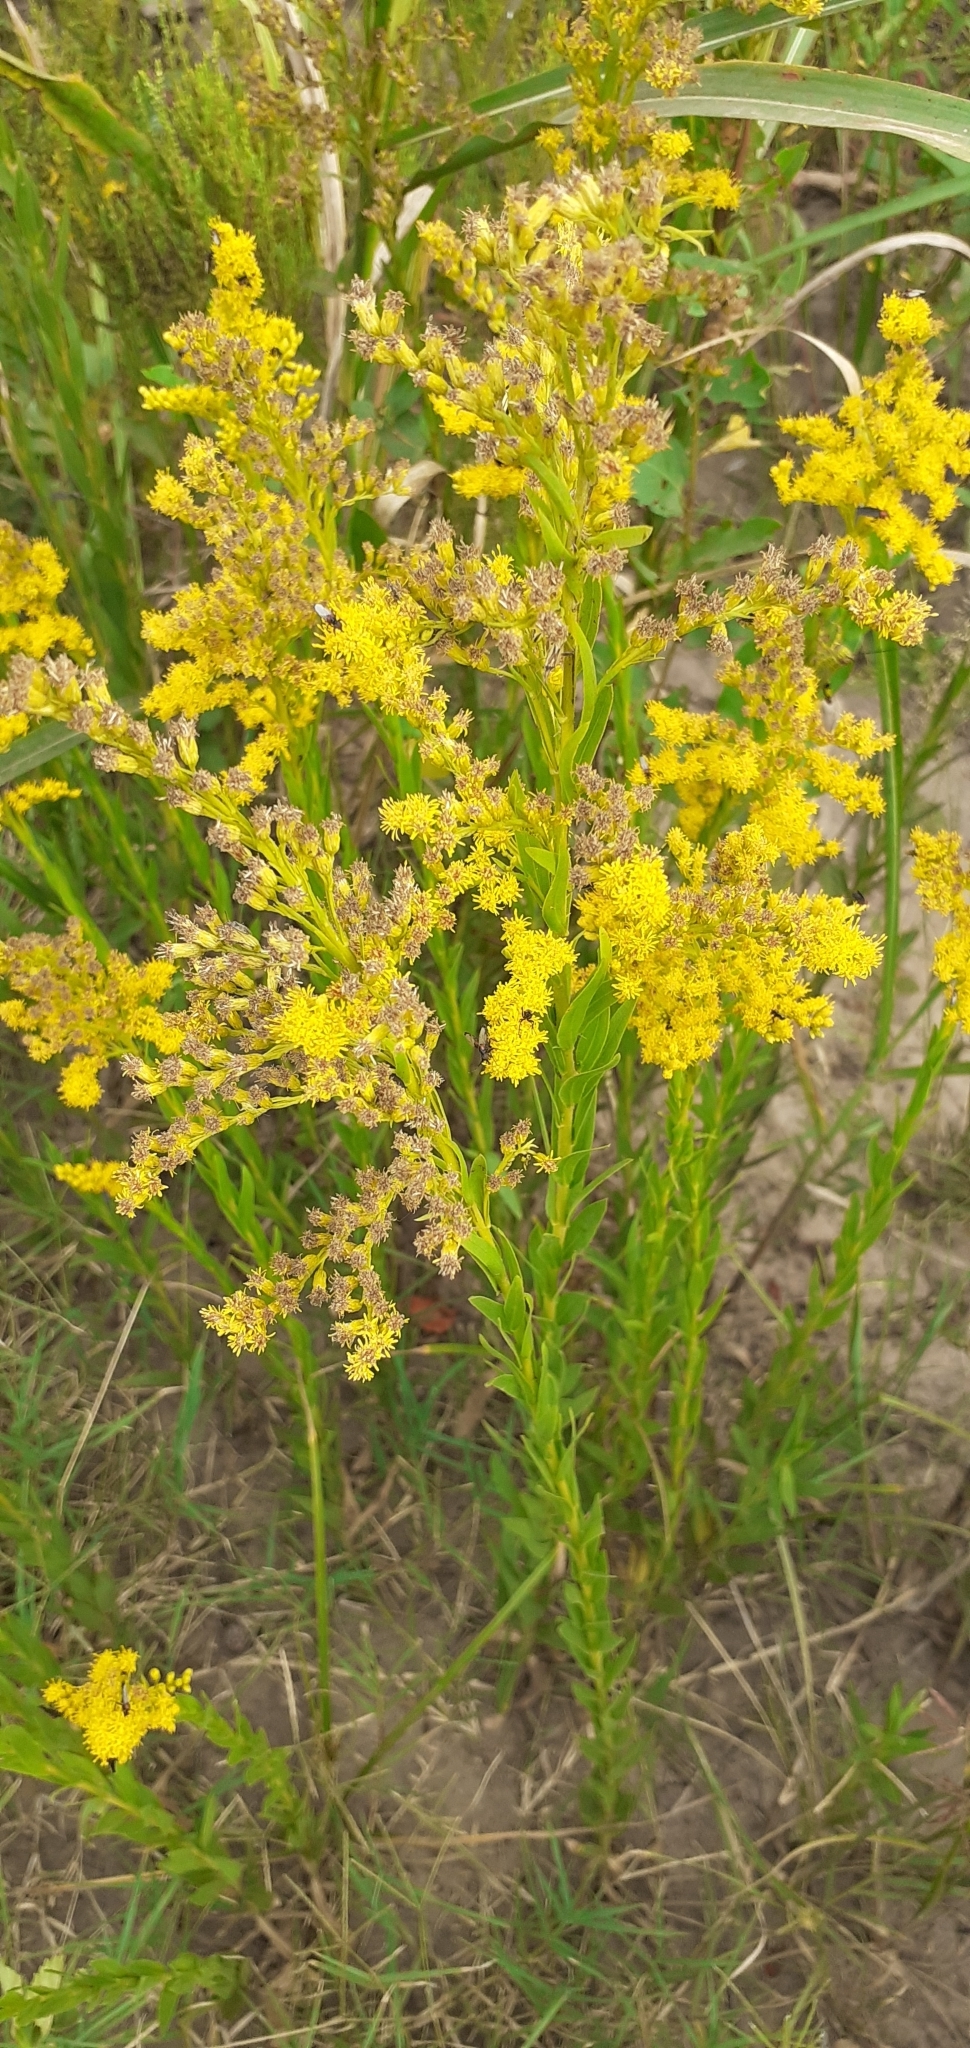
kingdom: Plantae
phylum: Tracheophyta
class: Magnoliopsida
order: Asterales
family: Asteraceae
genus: Solidago
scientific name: Solidago chilensis
